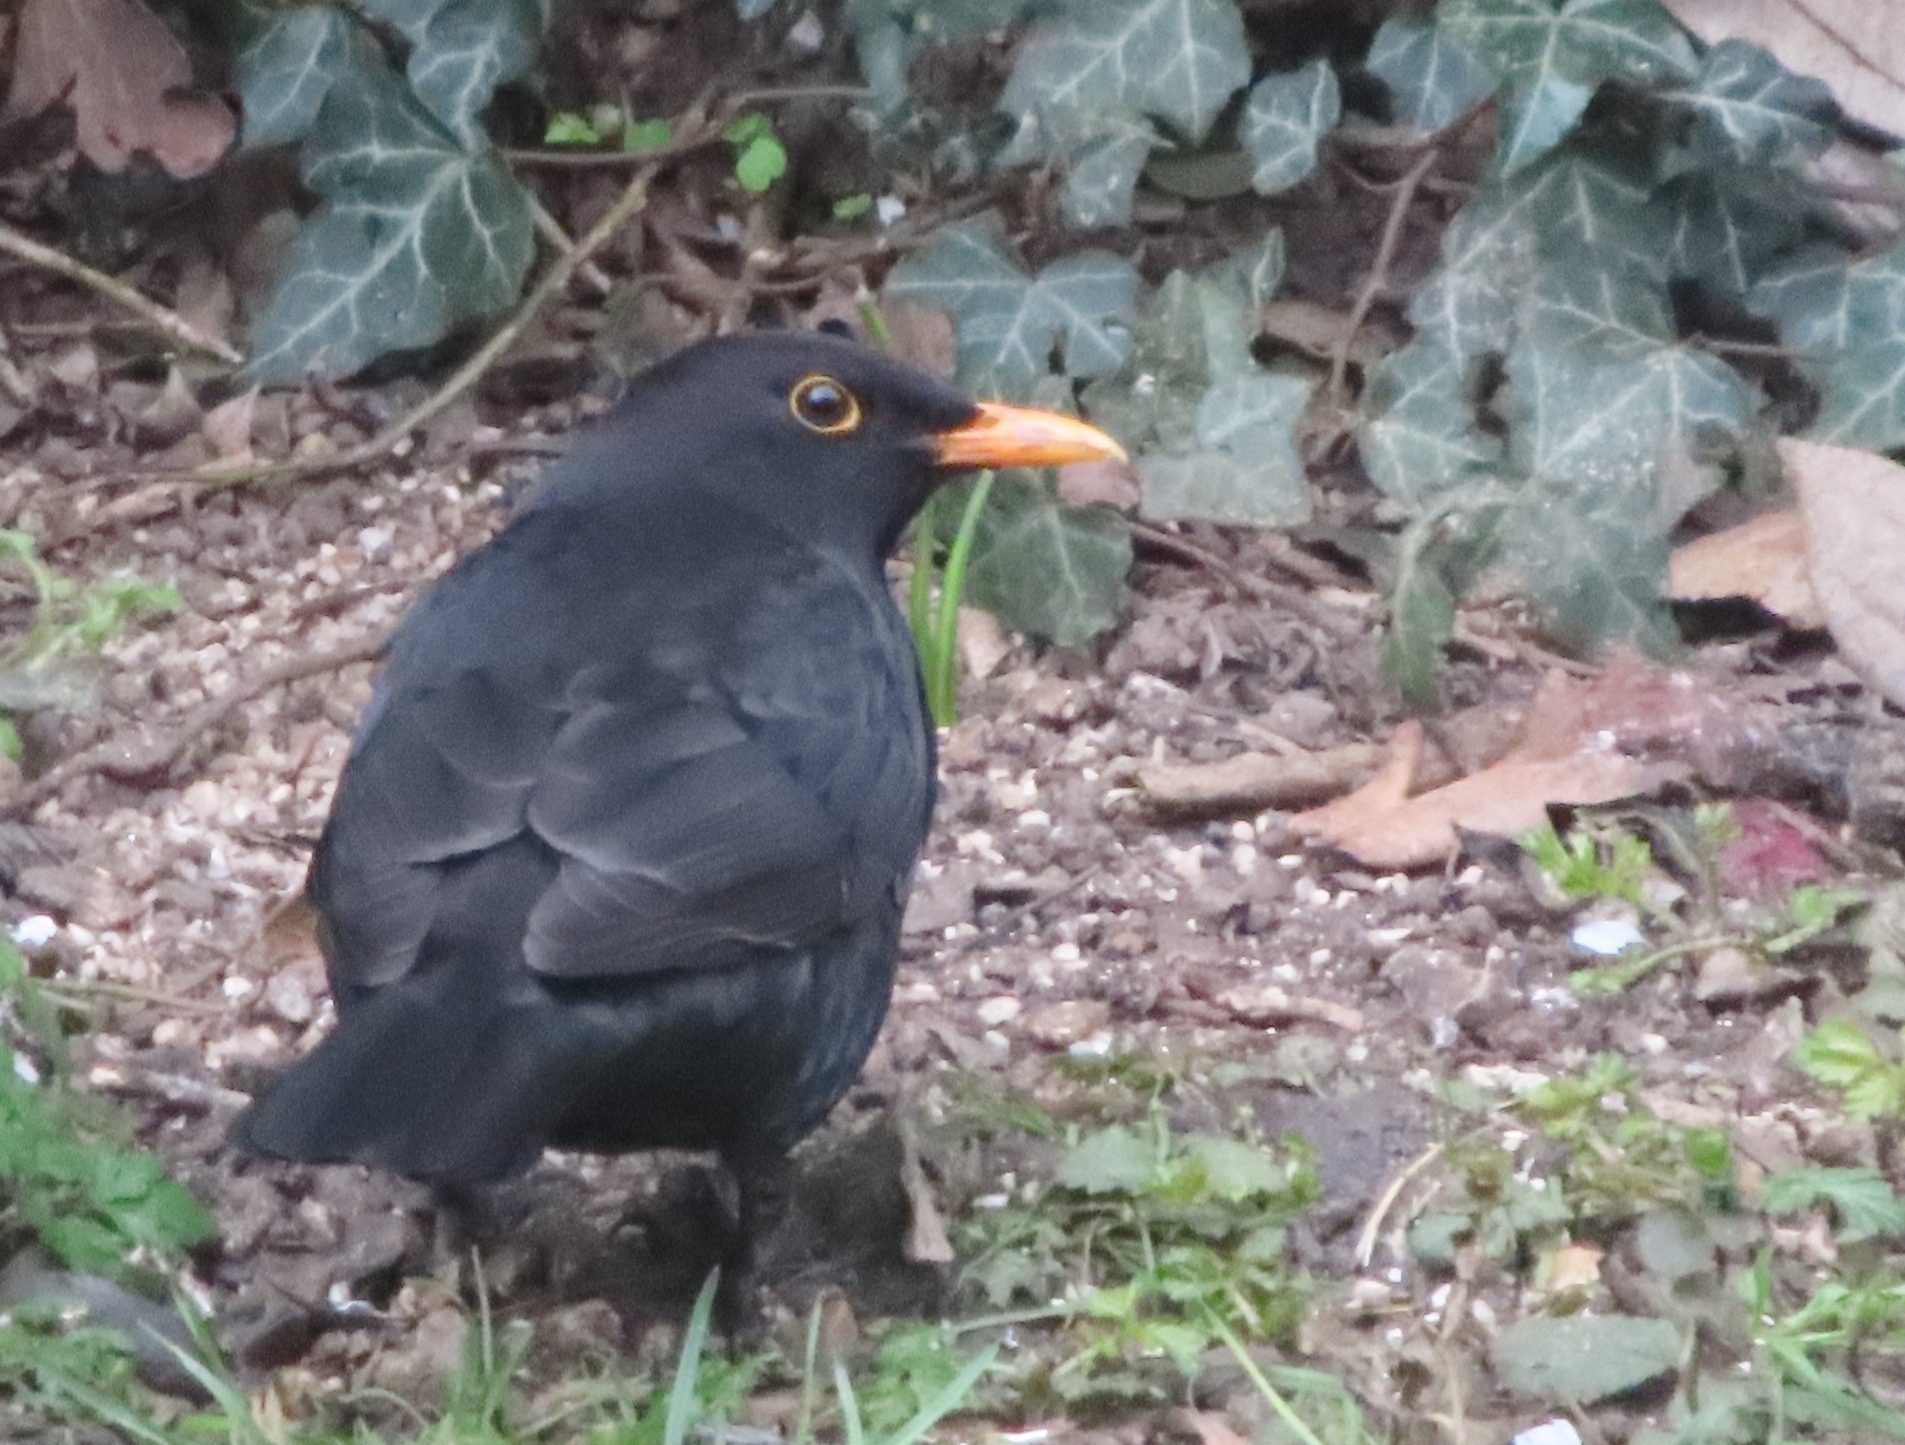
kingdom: Animalia
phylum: Chordata
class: Aves
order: Passeriformes
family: Turdidae
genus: Turdus
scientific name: Turdus merula
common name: Common blackbird
